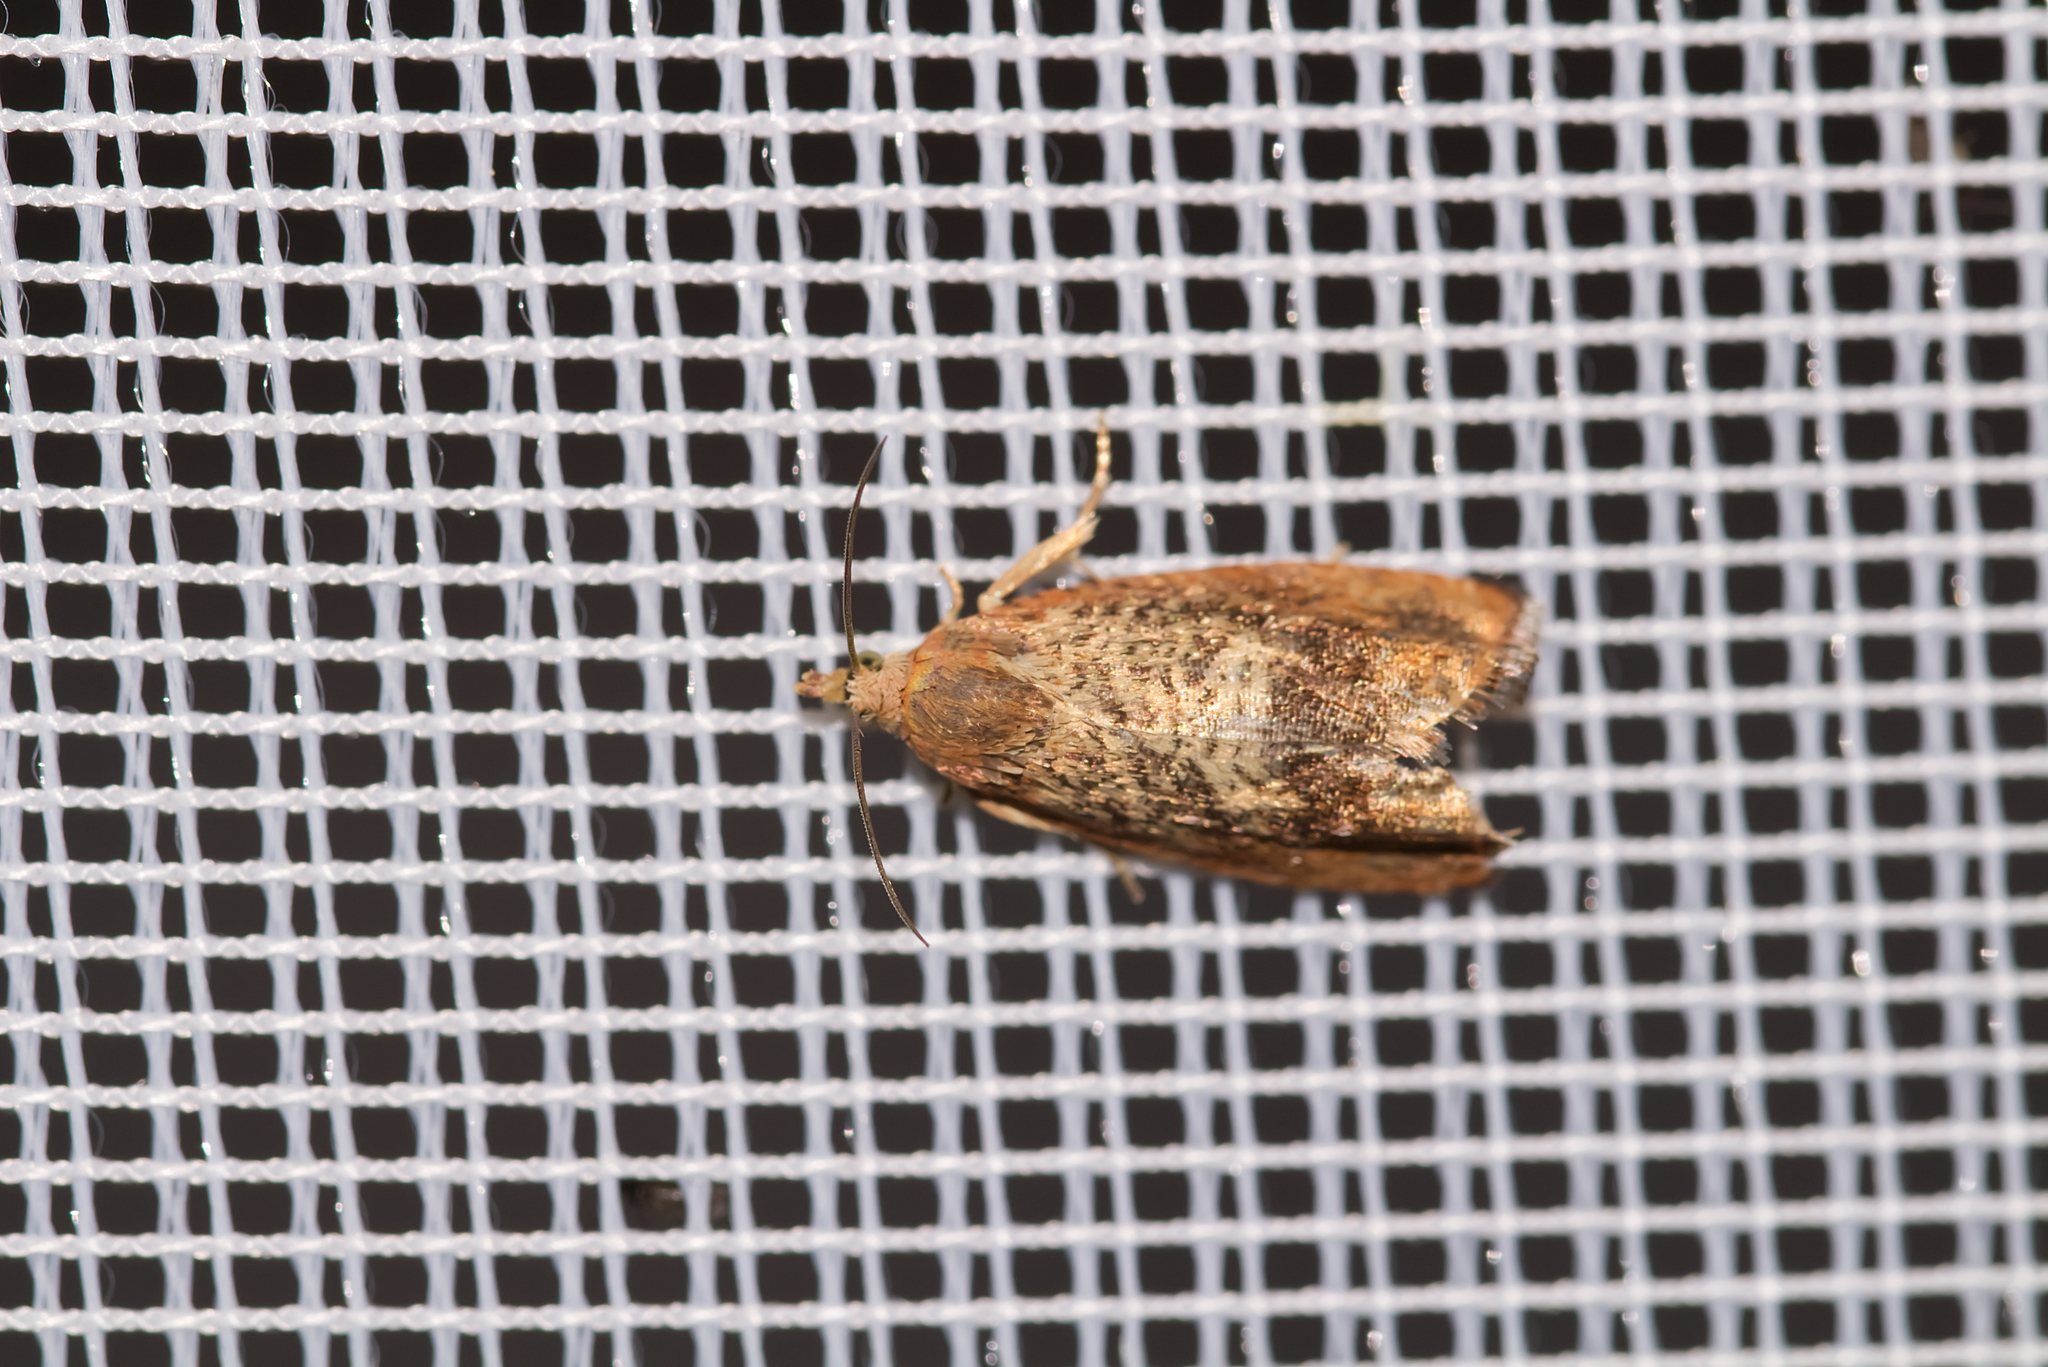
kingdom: Animalia
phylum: Arthropoda
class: Insecta
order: Lepidoptera
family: Tortricidae
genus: Cydia
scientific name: Cydia amplana
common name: Vagrant piercer
